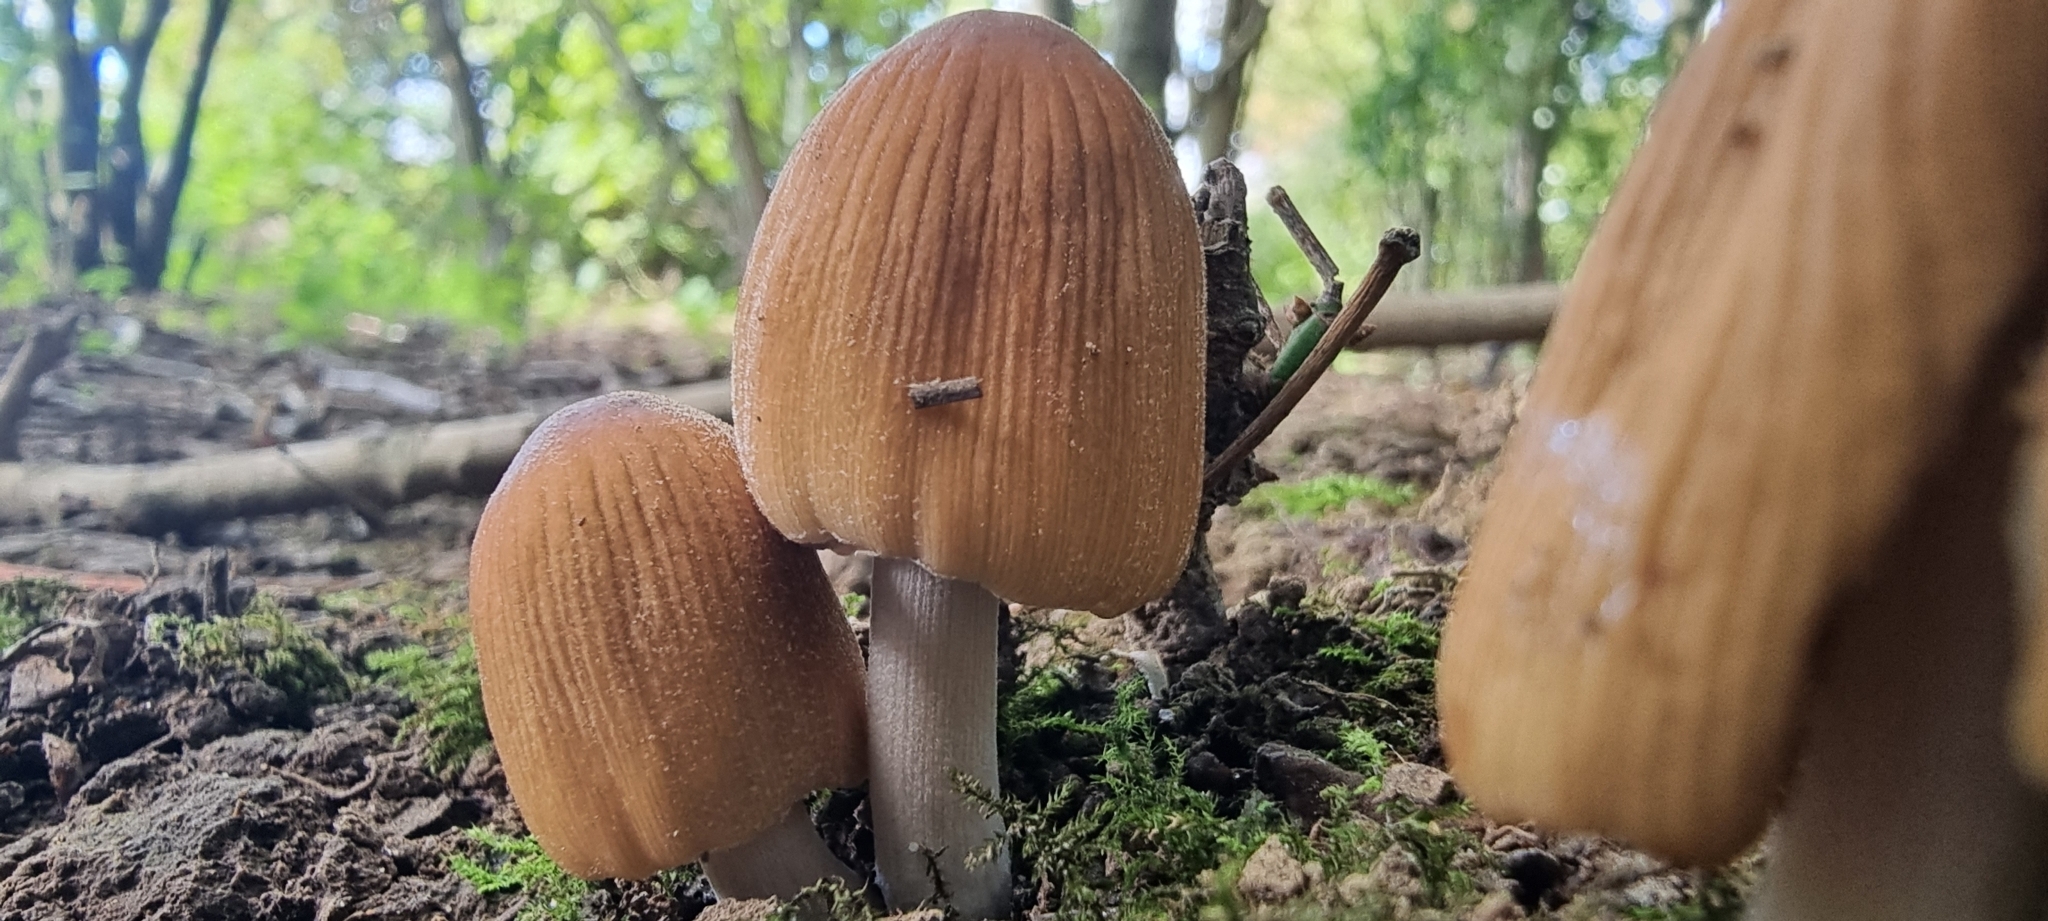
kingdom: Fungi
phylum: Basidiomycota
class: Agaricomycetes
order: Agaricales
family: Psathyrellaceae
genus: Coprinellus
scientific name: Coprinellus micaceus
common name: Glistening ink-cap
